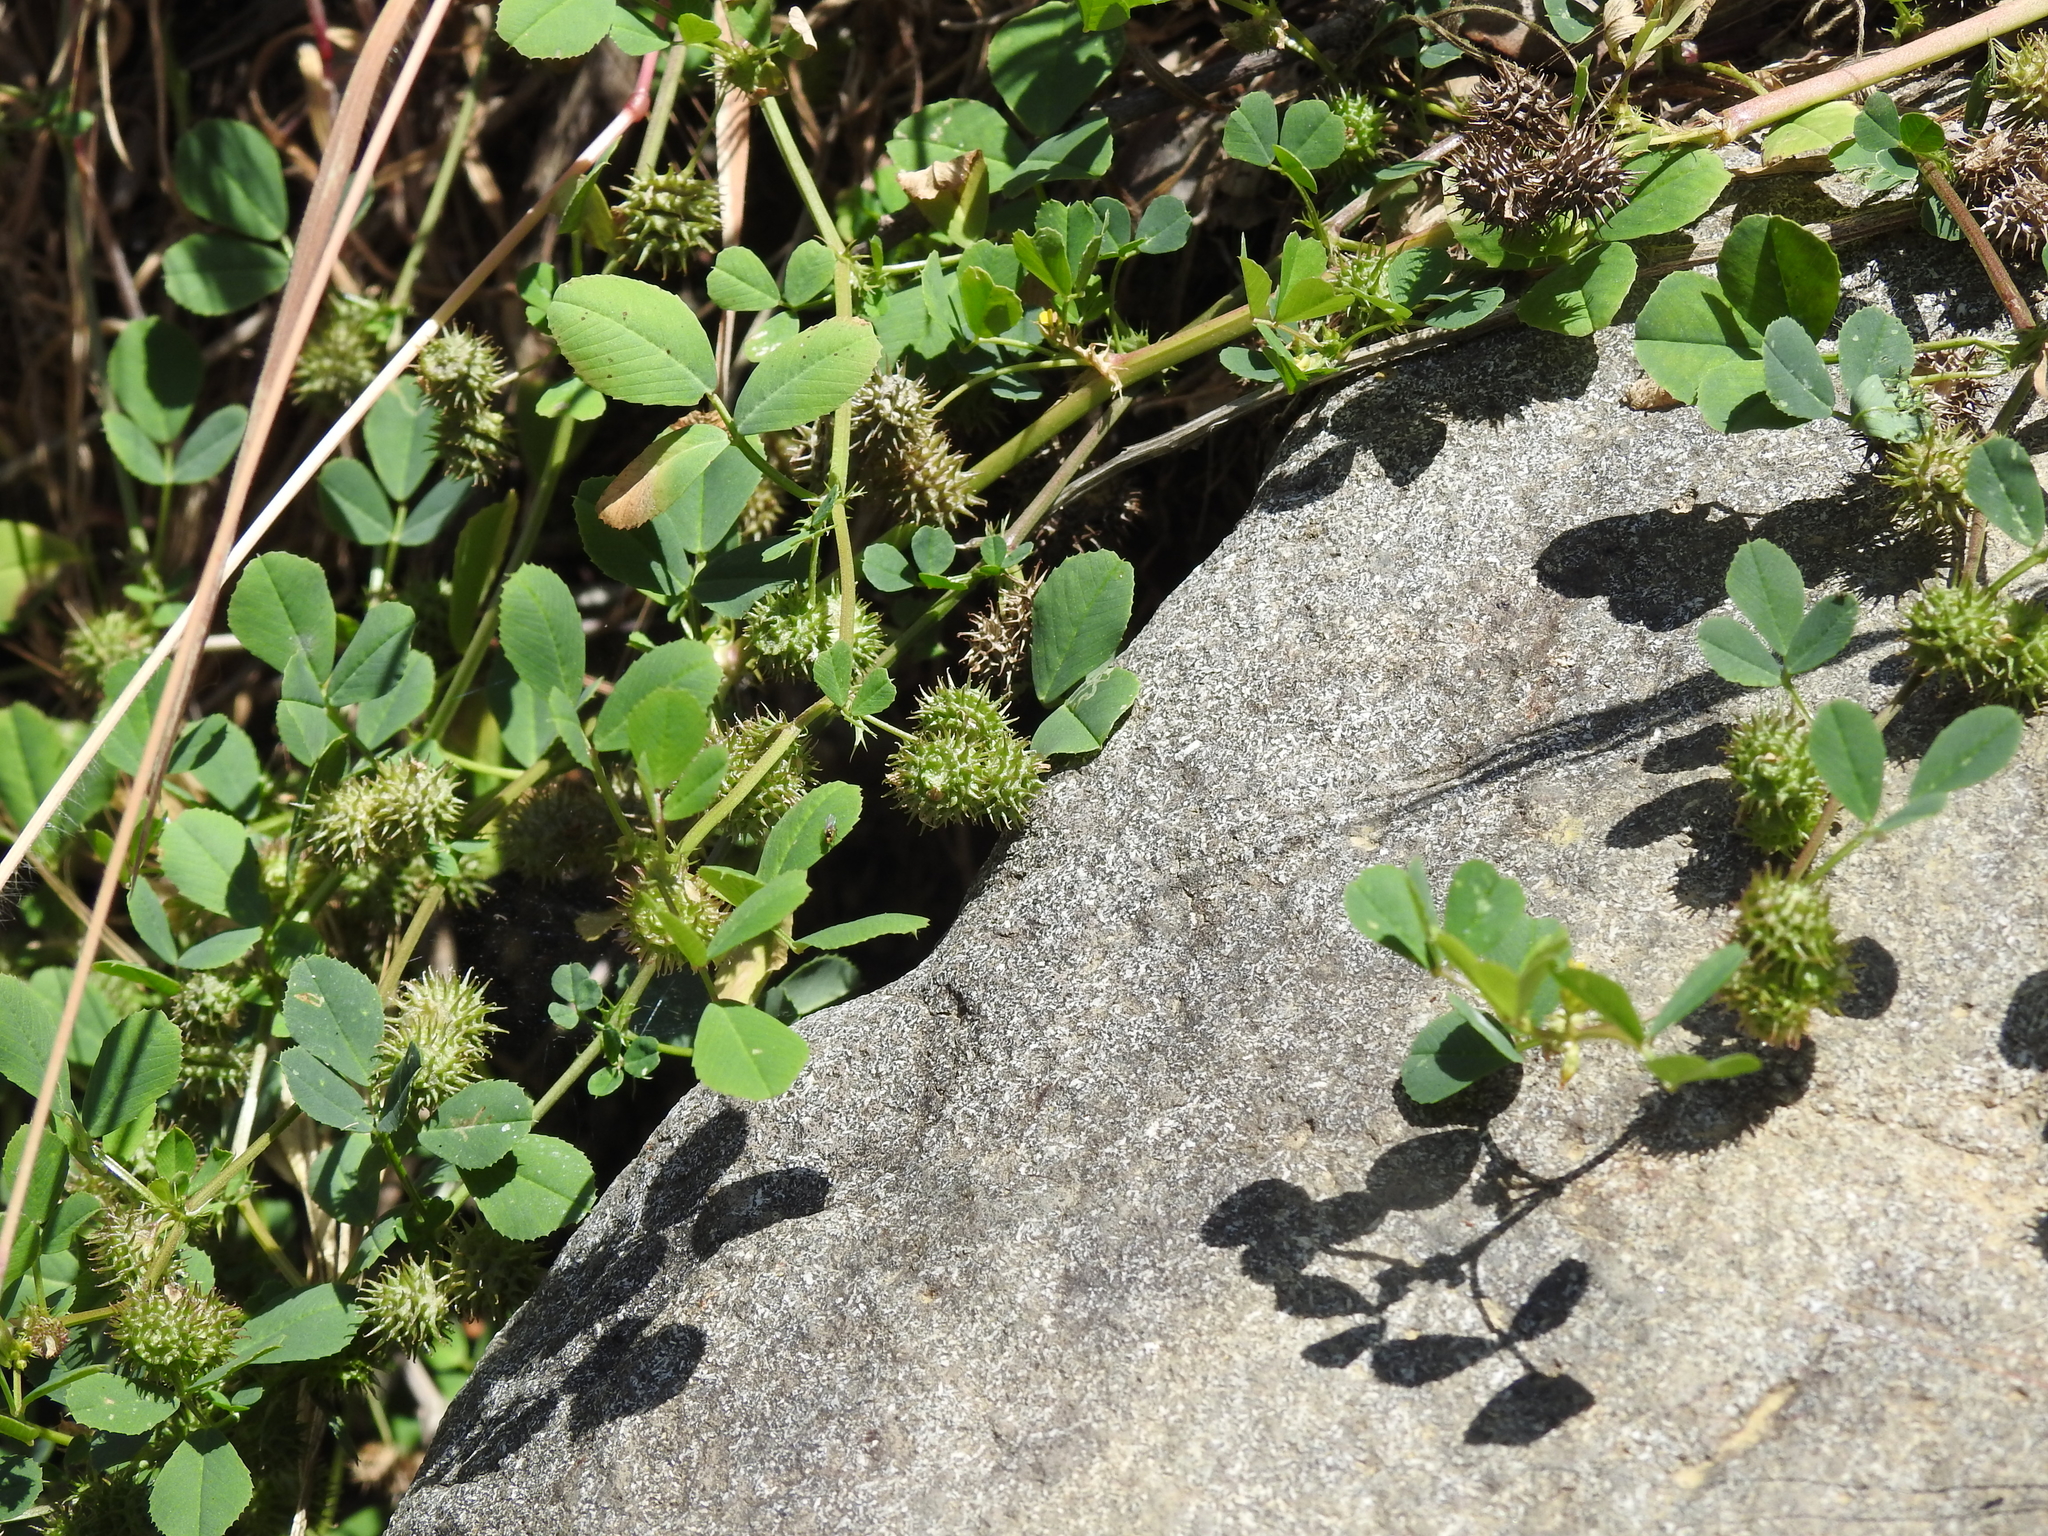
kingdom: Plantae
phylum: Tracheophyta
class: Magnoliopsida
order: Fabales
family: Fabaceae
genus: Medicago
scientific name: Medicago polymorpha
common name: Burclover
